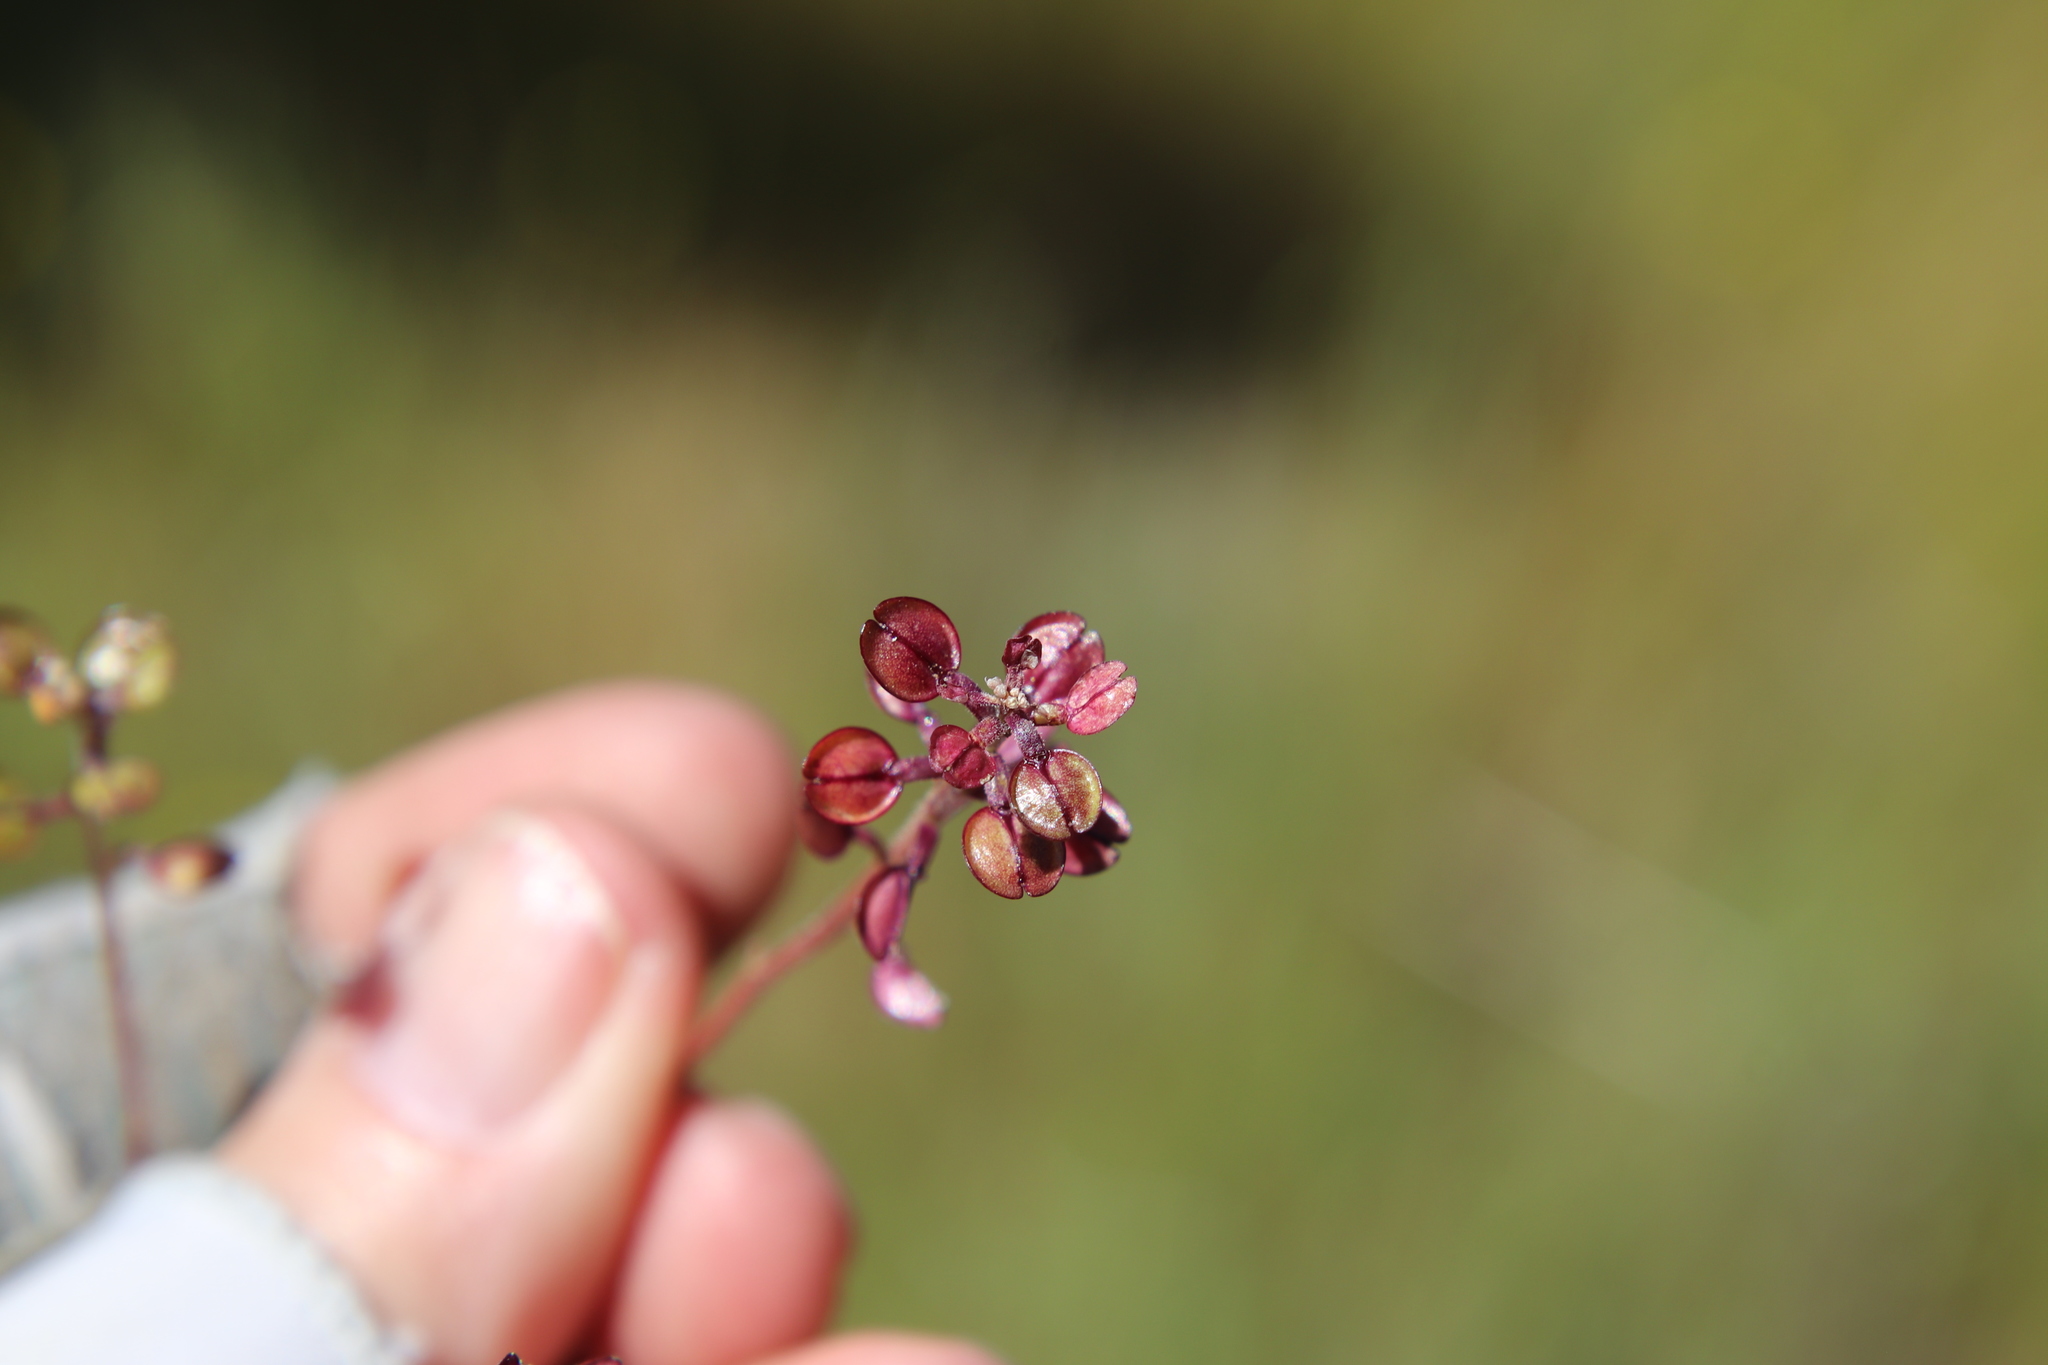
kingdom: Plantae
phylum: Tracheophyta
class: Magnoliopsida
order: Brassicales
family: Brassicaceae
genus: Lepidium
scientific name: Lepidium nitidum
